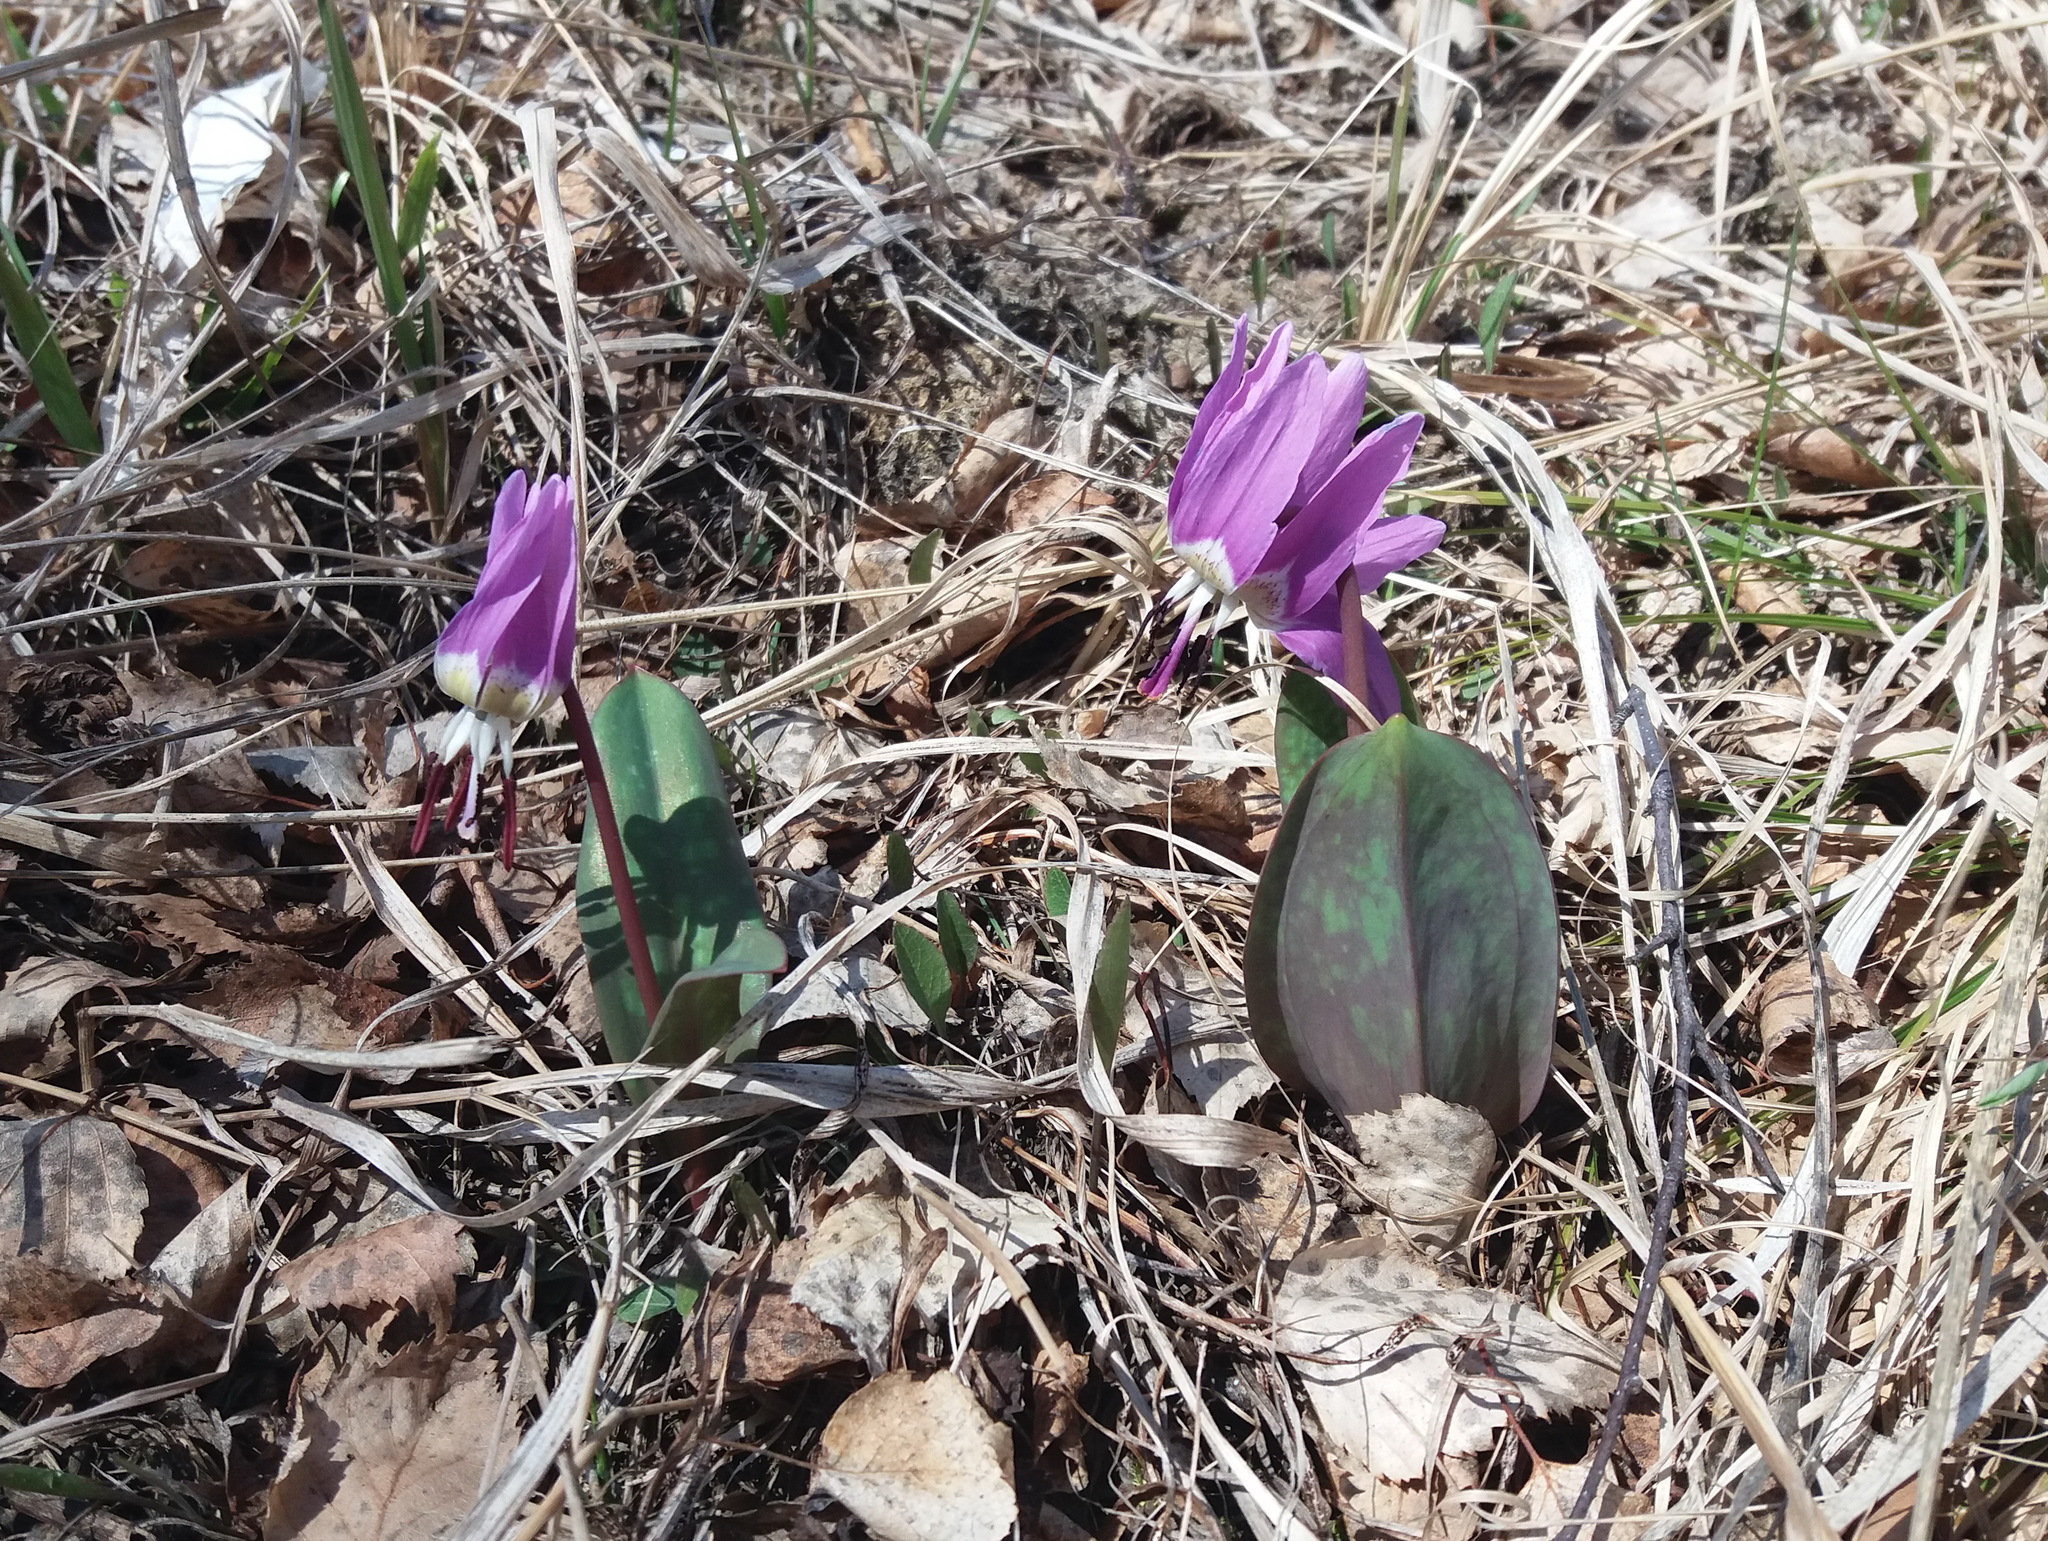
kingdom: Plantae
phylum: Tracheophyta
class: Liliopsida
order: Liliales
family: Liliaceae
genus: Erythronium
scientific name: Erythronium sulevii
